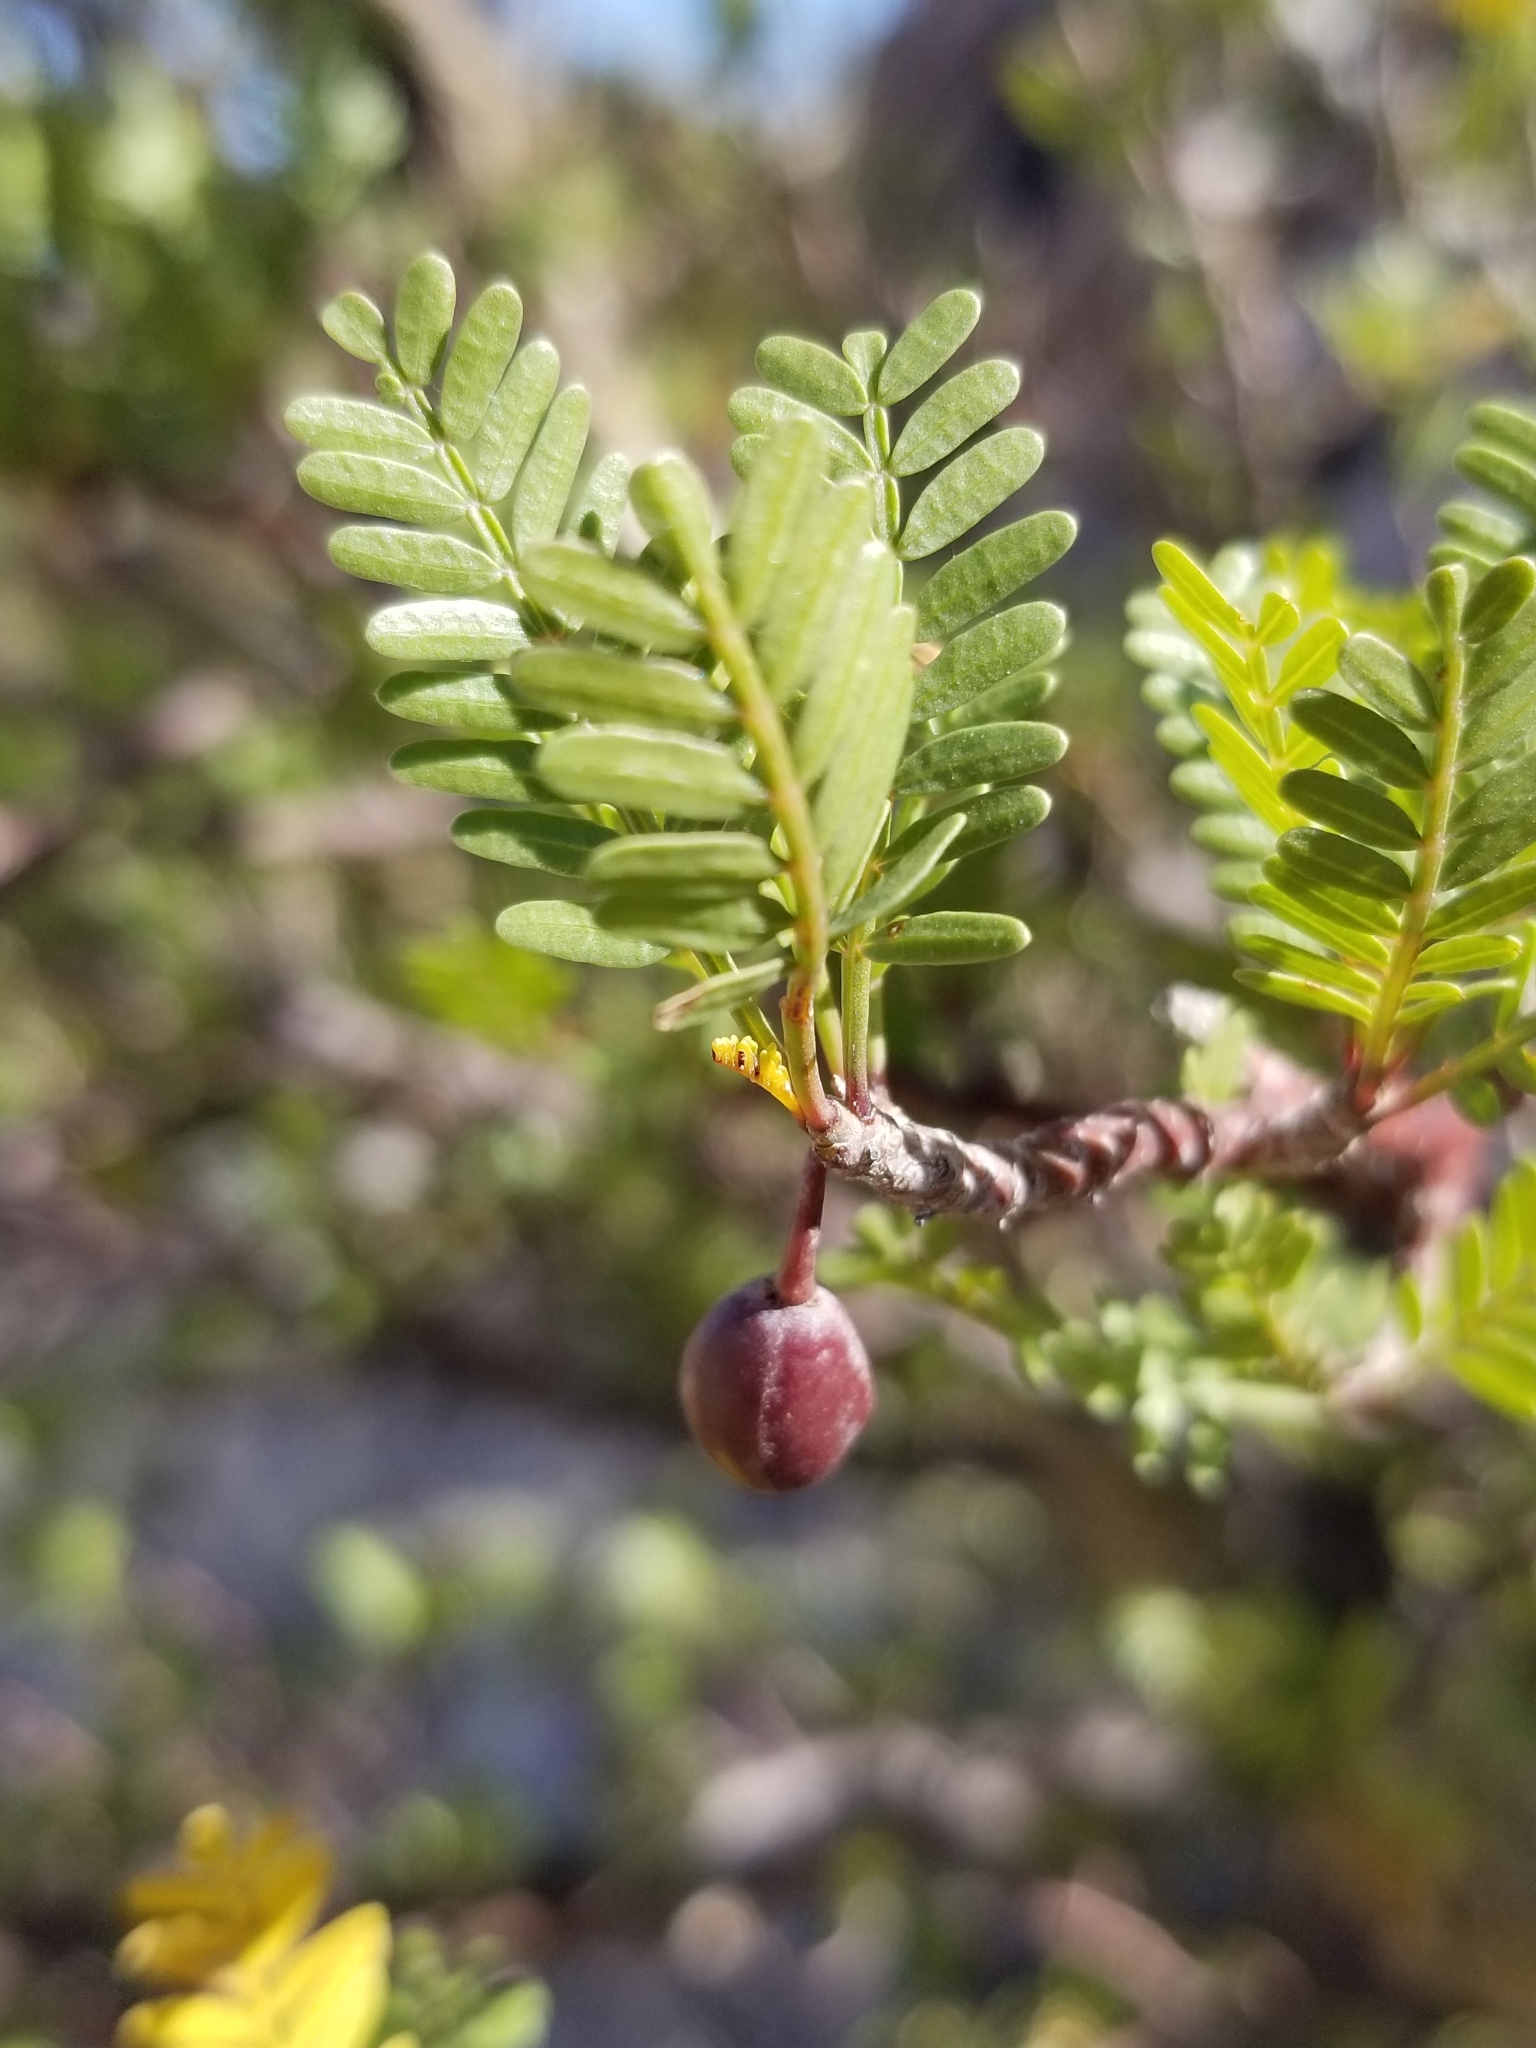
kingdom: Plantae
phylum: Tracheophyta
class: Magnoliopsida
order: Sapindales
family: Burseraceae
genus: Bursera
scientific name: Bursera microphylla
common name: Elephant tree
